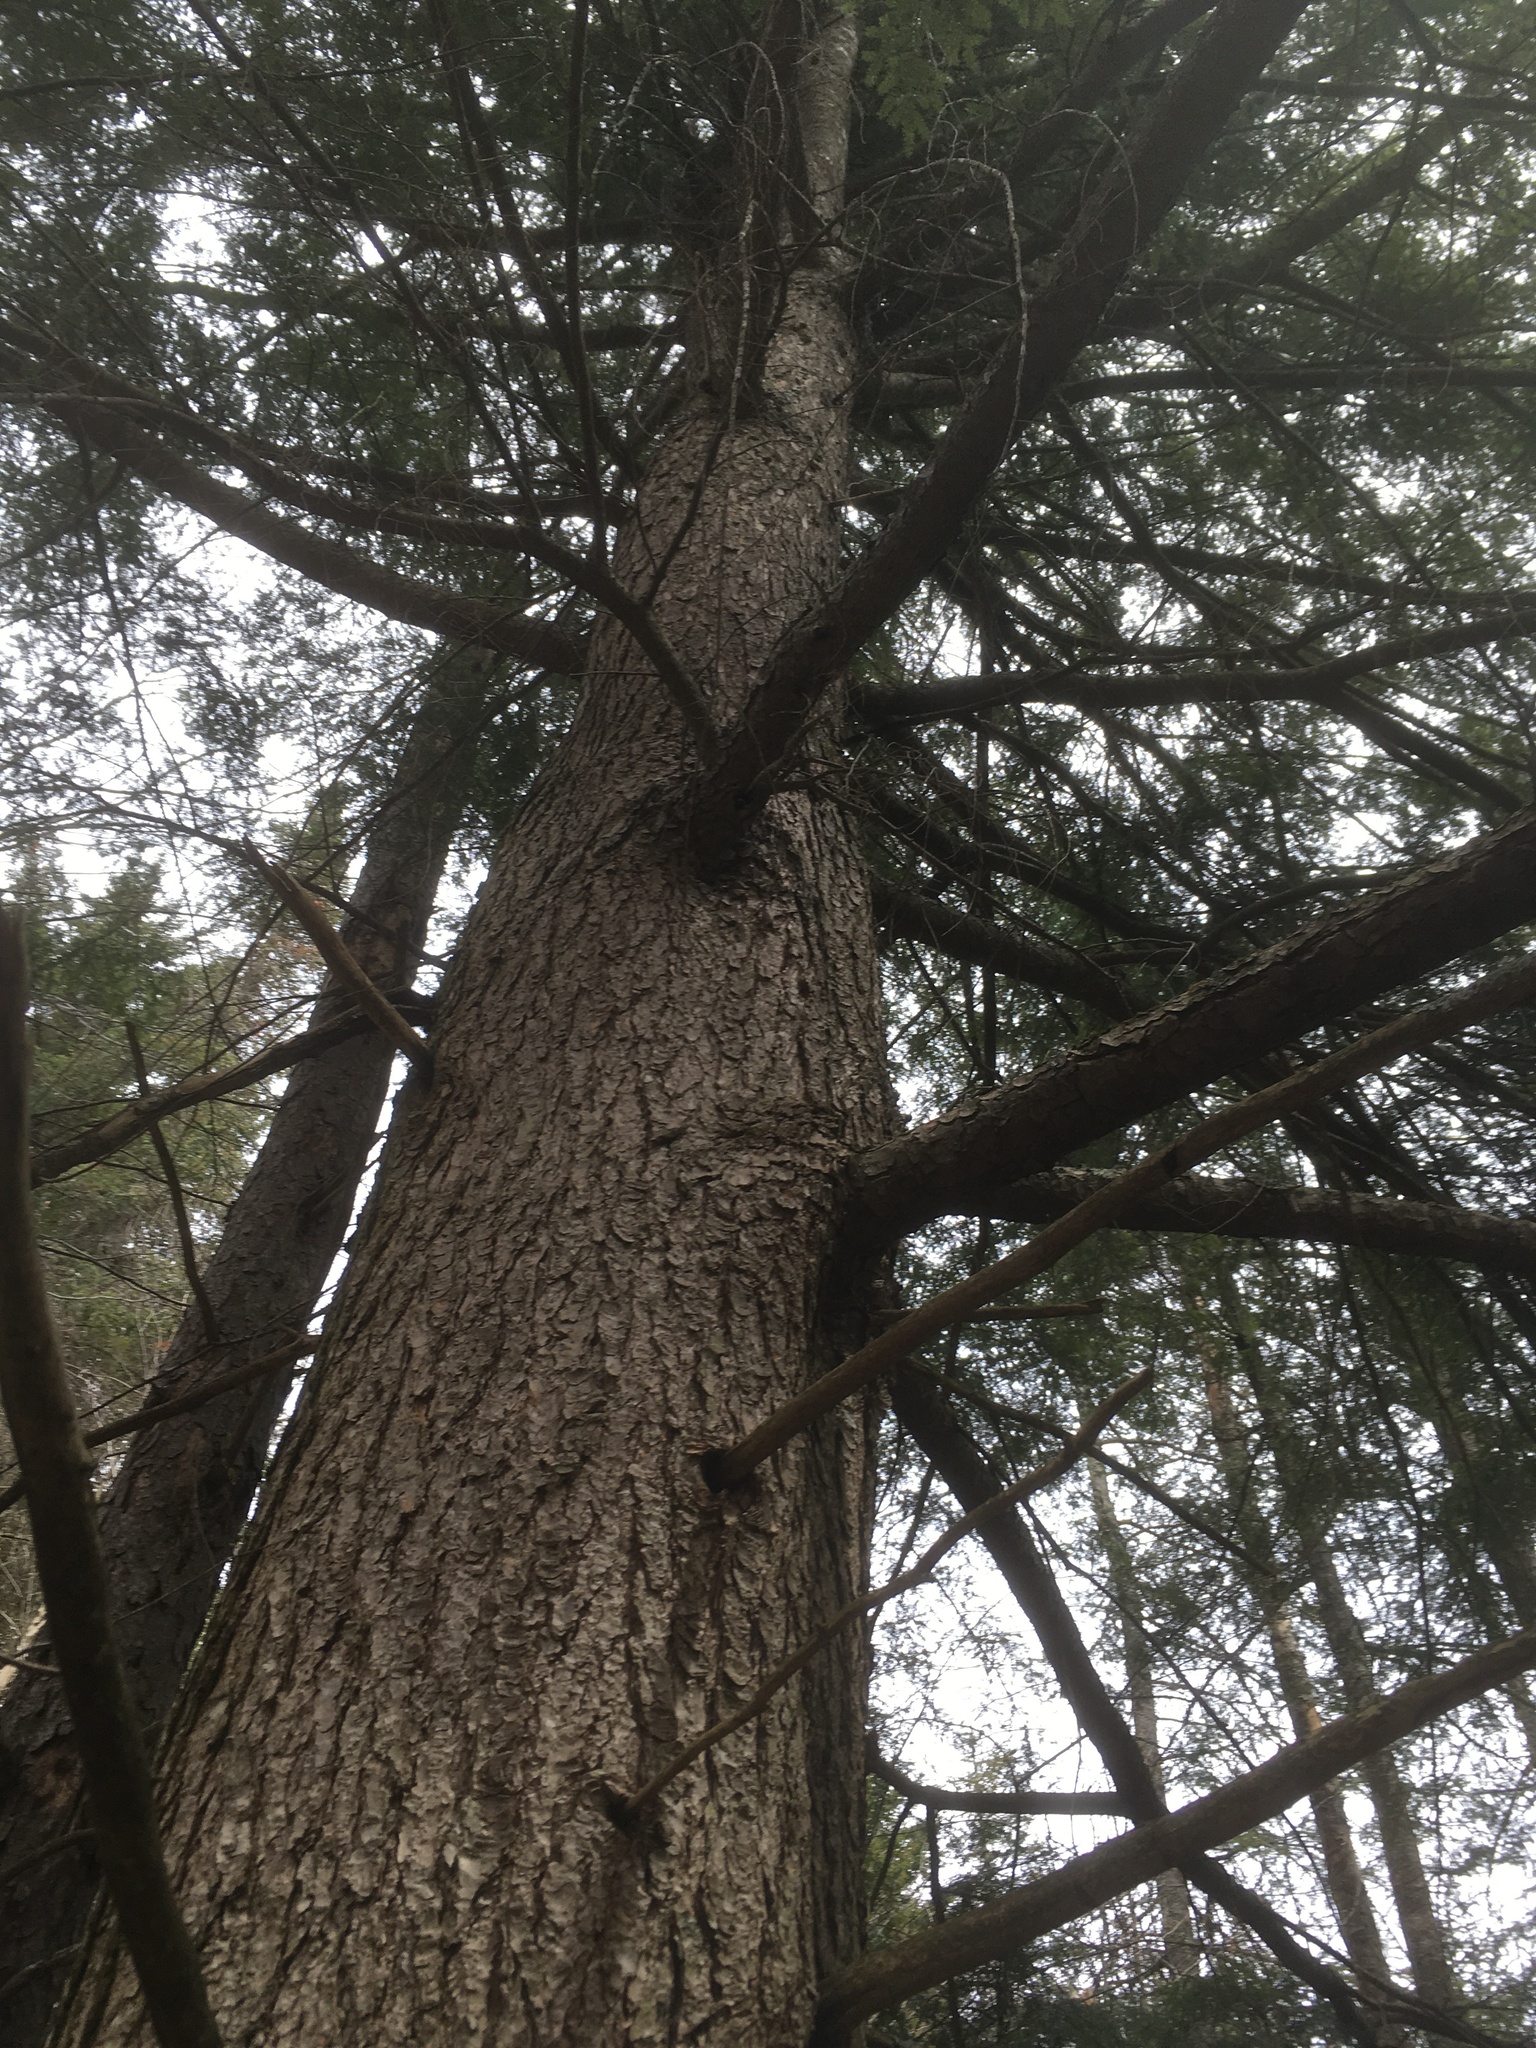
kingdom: Plantae
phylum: Tracheophyta
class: Pinopsida
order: Pinales
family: Pinaceae
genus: Tsuga
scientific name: Tsuga canadensis
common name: Eastern hemlock
